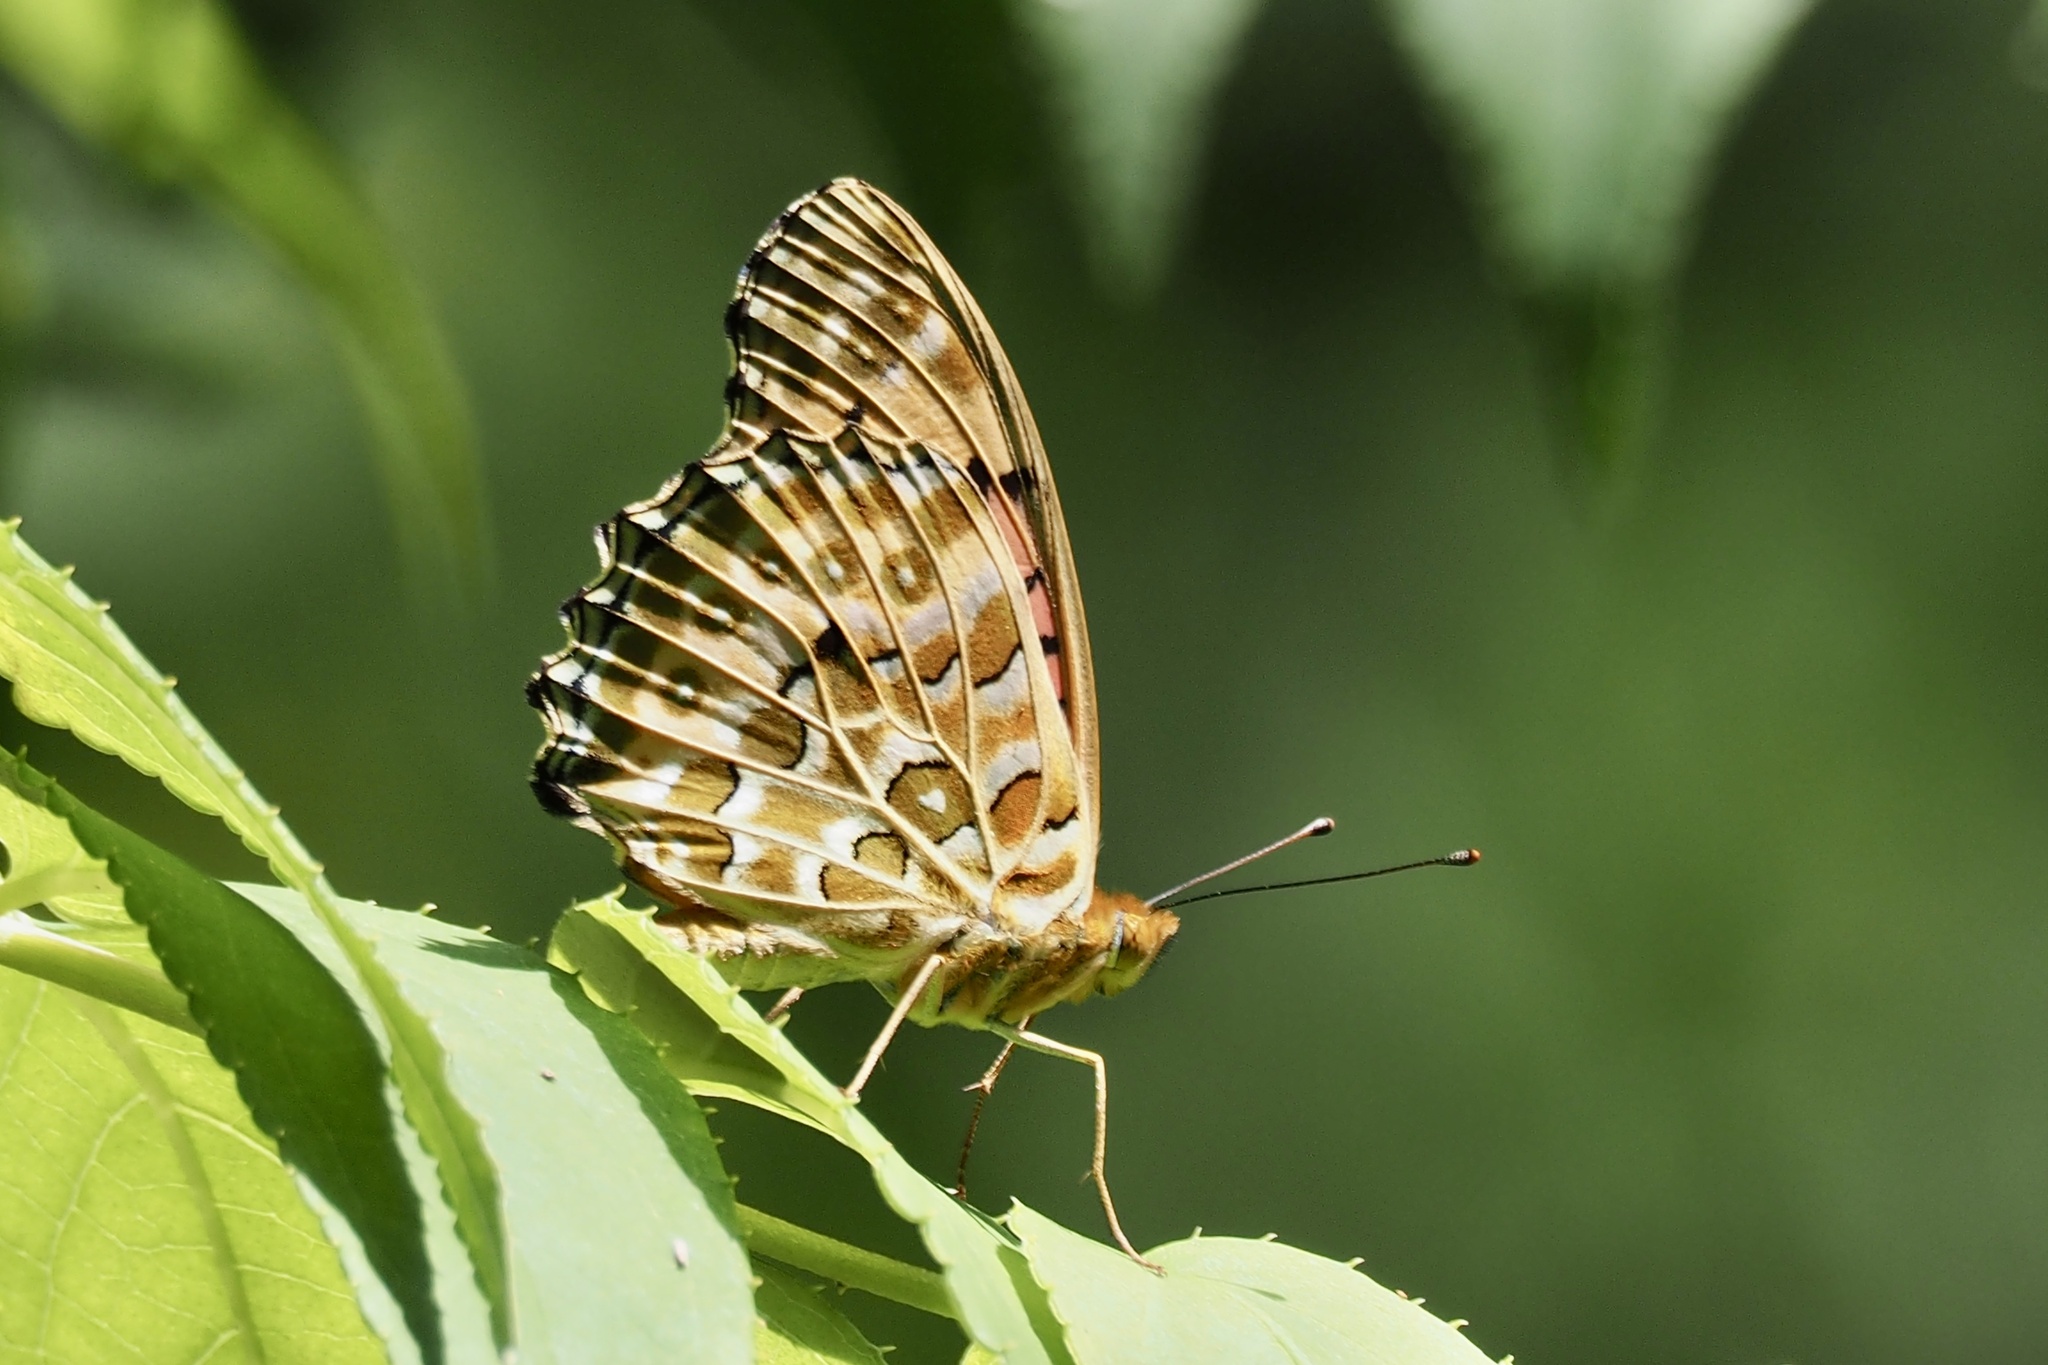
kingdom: Animalia
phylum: Arthropoda
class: Insecta
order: Lepidoptera
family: Nymphalidae
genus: Argynnis
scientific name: Argynnis hyperbius
